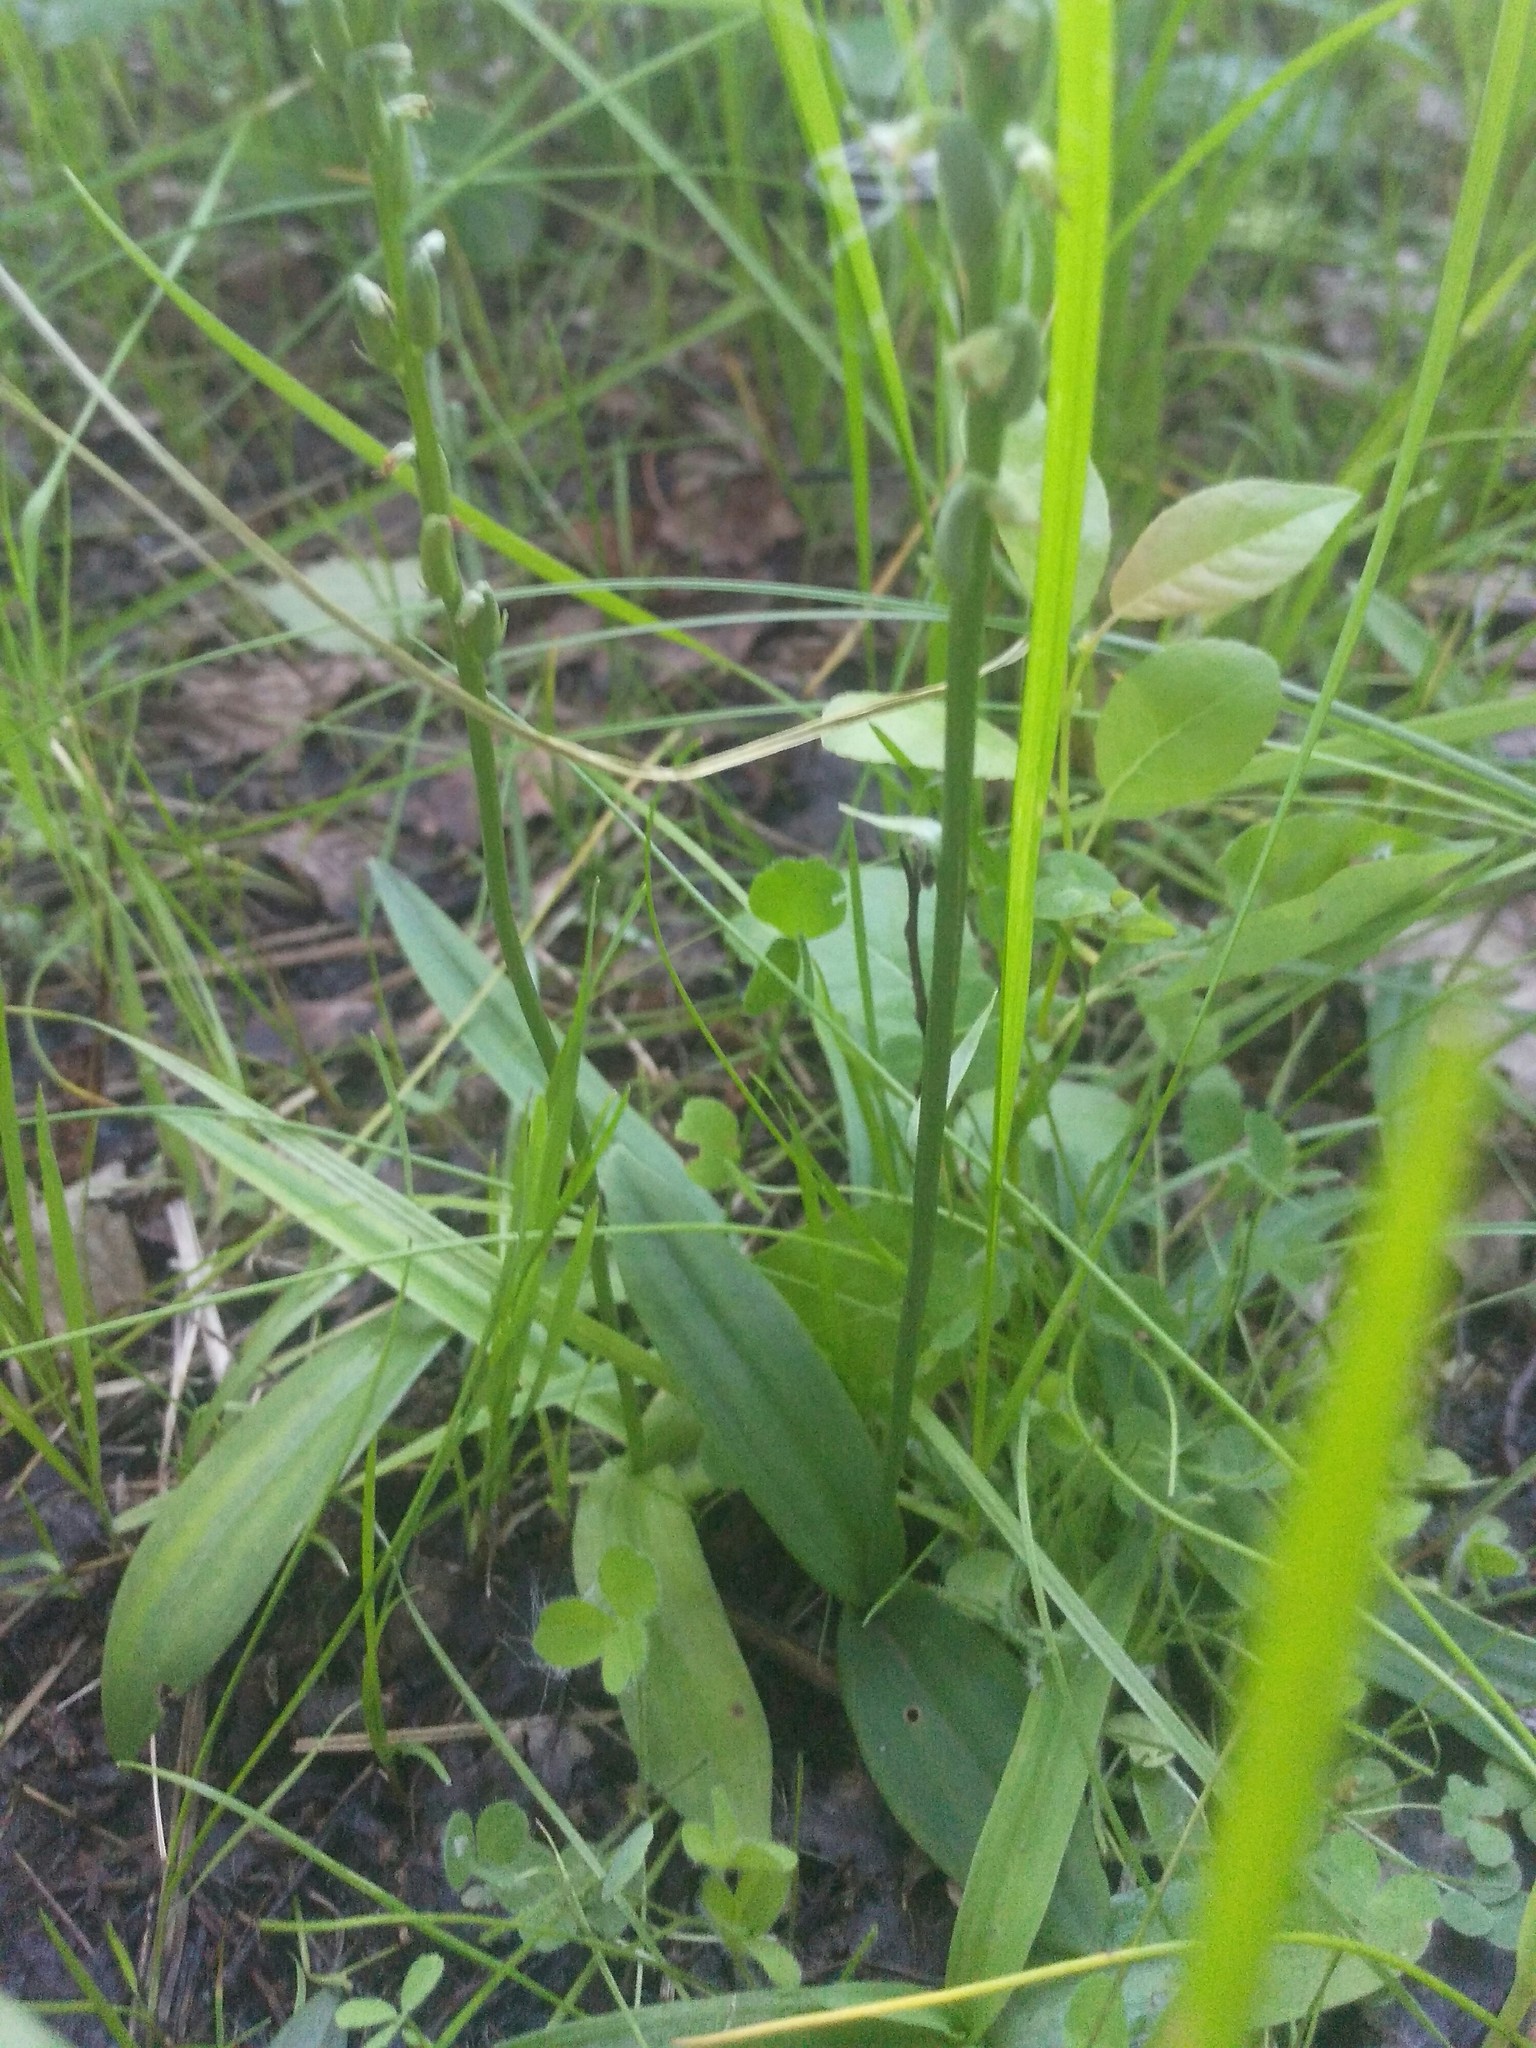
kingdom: Plantae
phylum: Tracheophyta
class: Liliopsida
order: Asparagales
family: Orchidaceae
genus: Herminium
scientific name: Herminium monorchis
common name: Musk orchid
